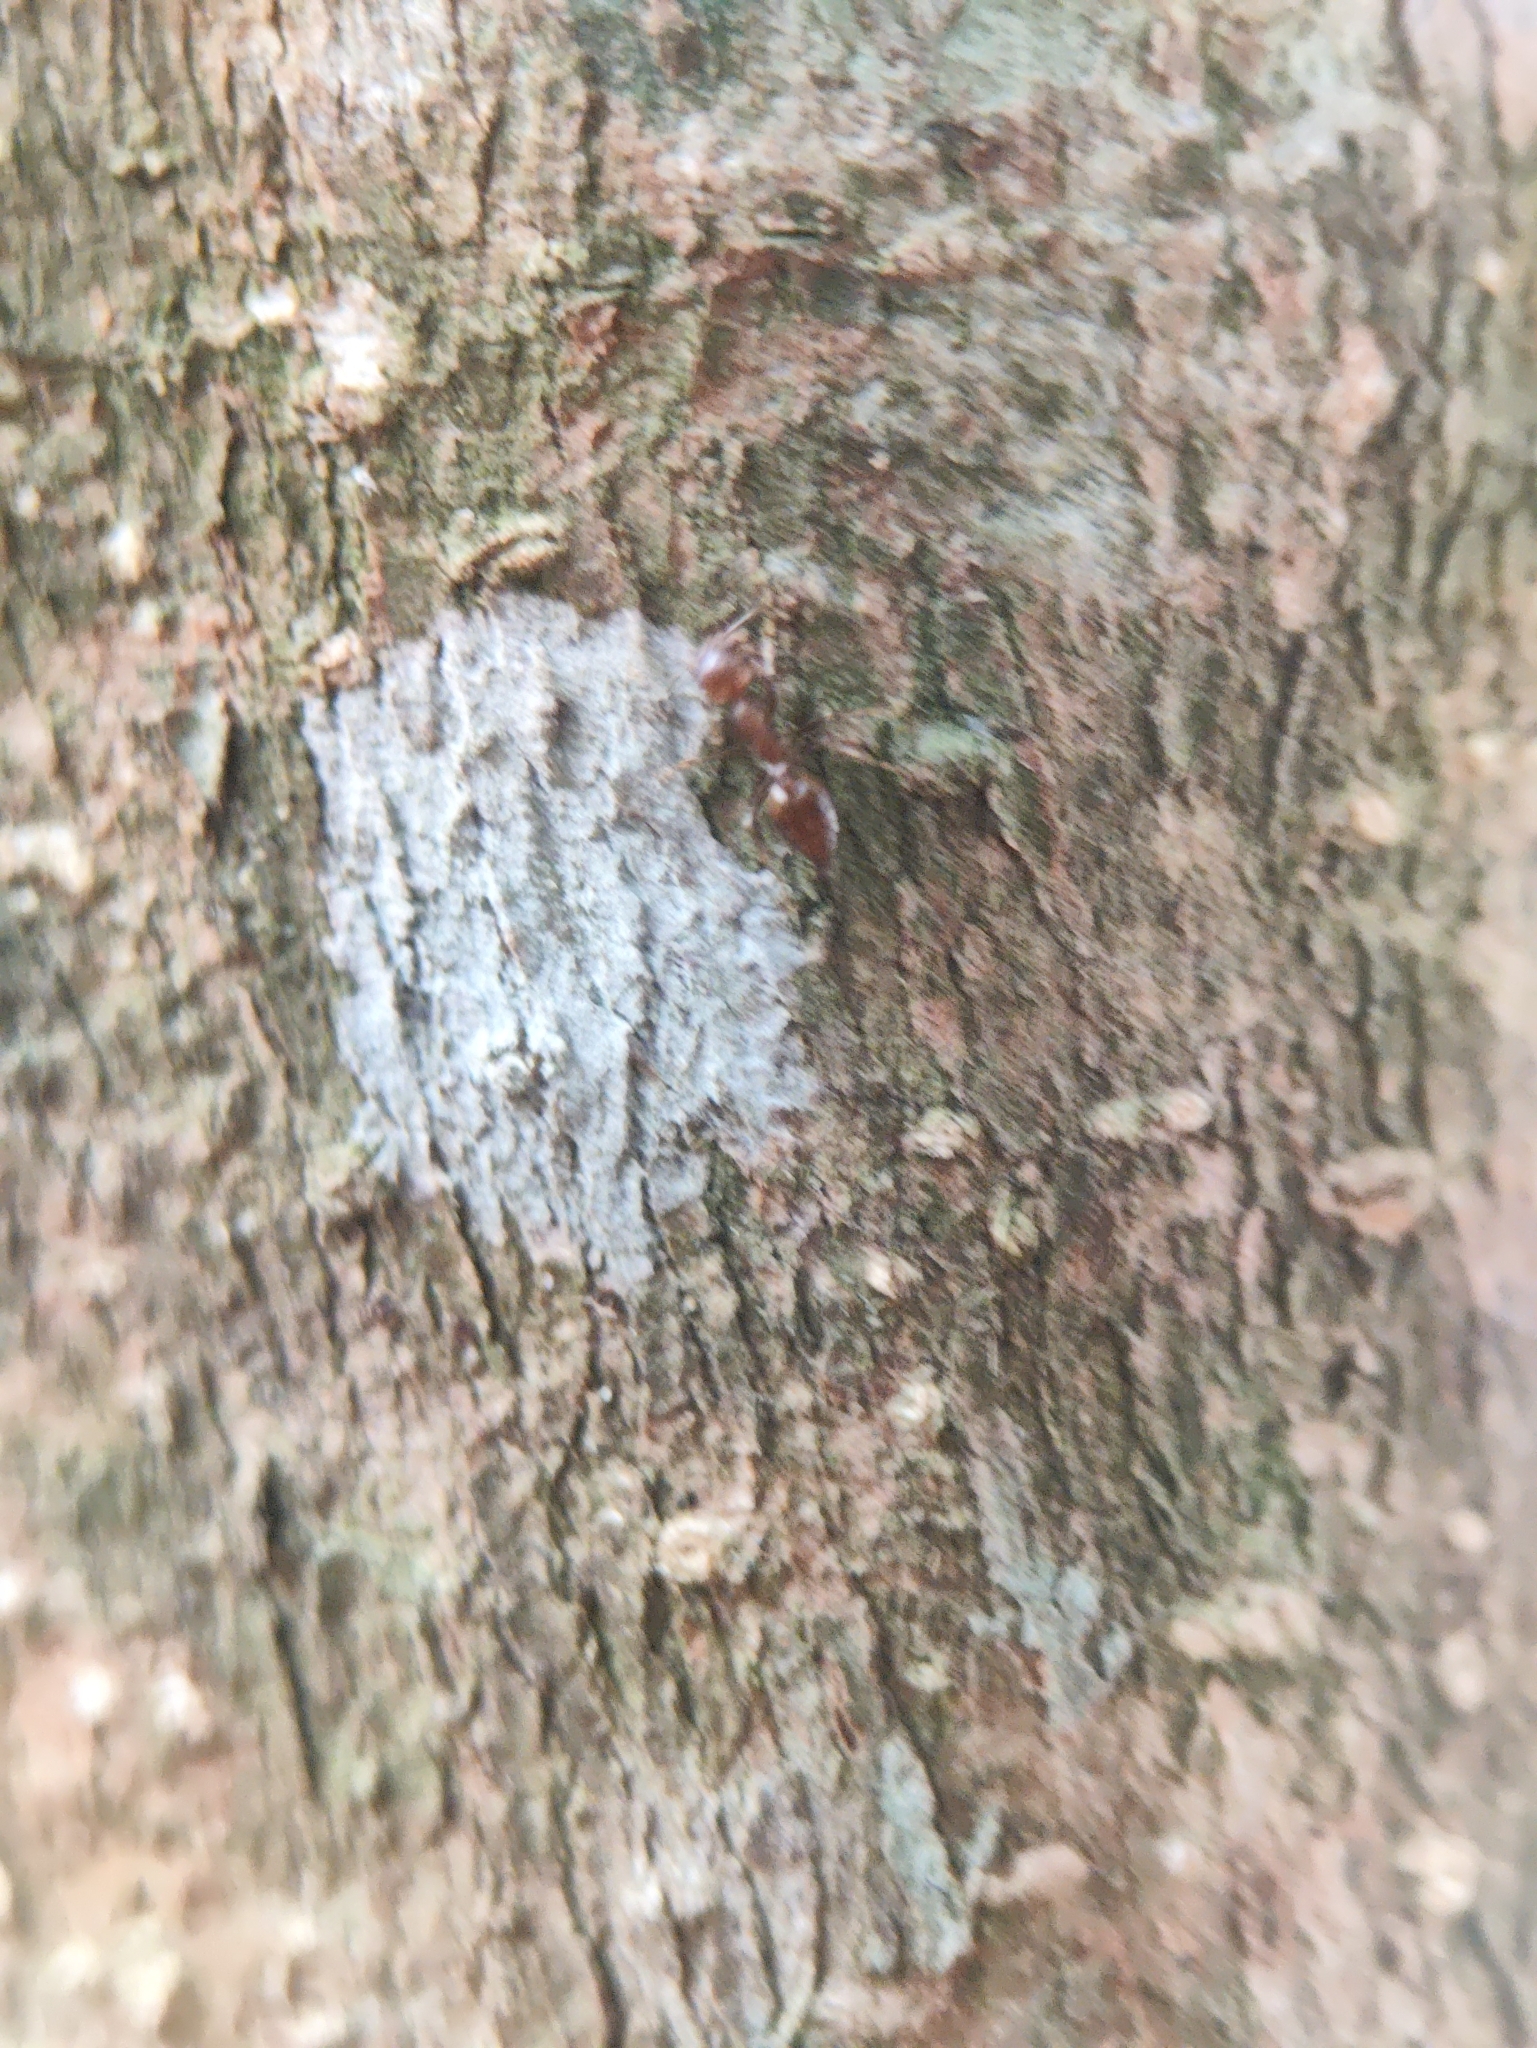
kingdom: Animalia
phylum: Arthropoda
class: Insecta
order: Hymenoptera
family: Formicidae
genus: Crematogaster
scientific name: Crematogaster rogenhoferi
